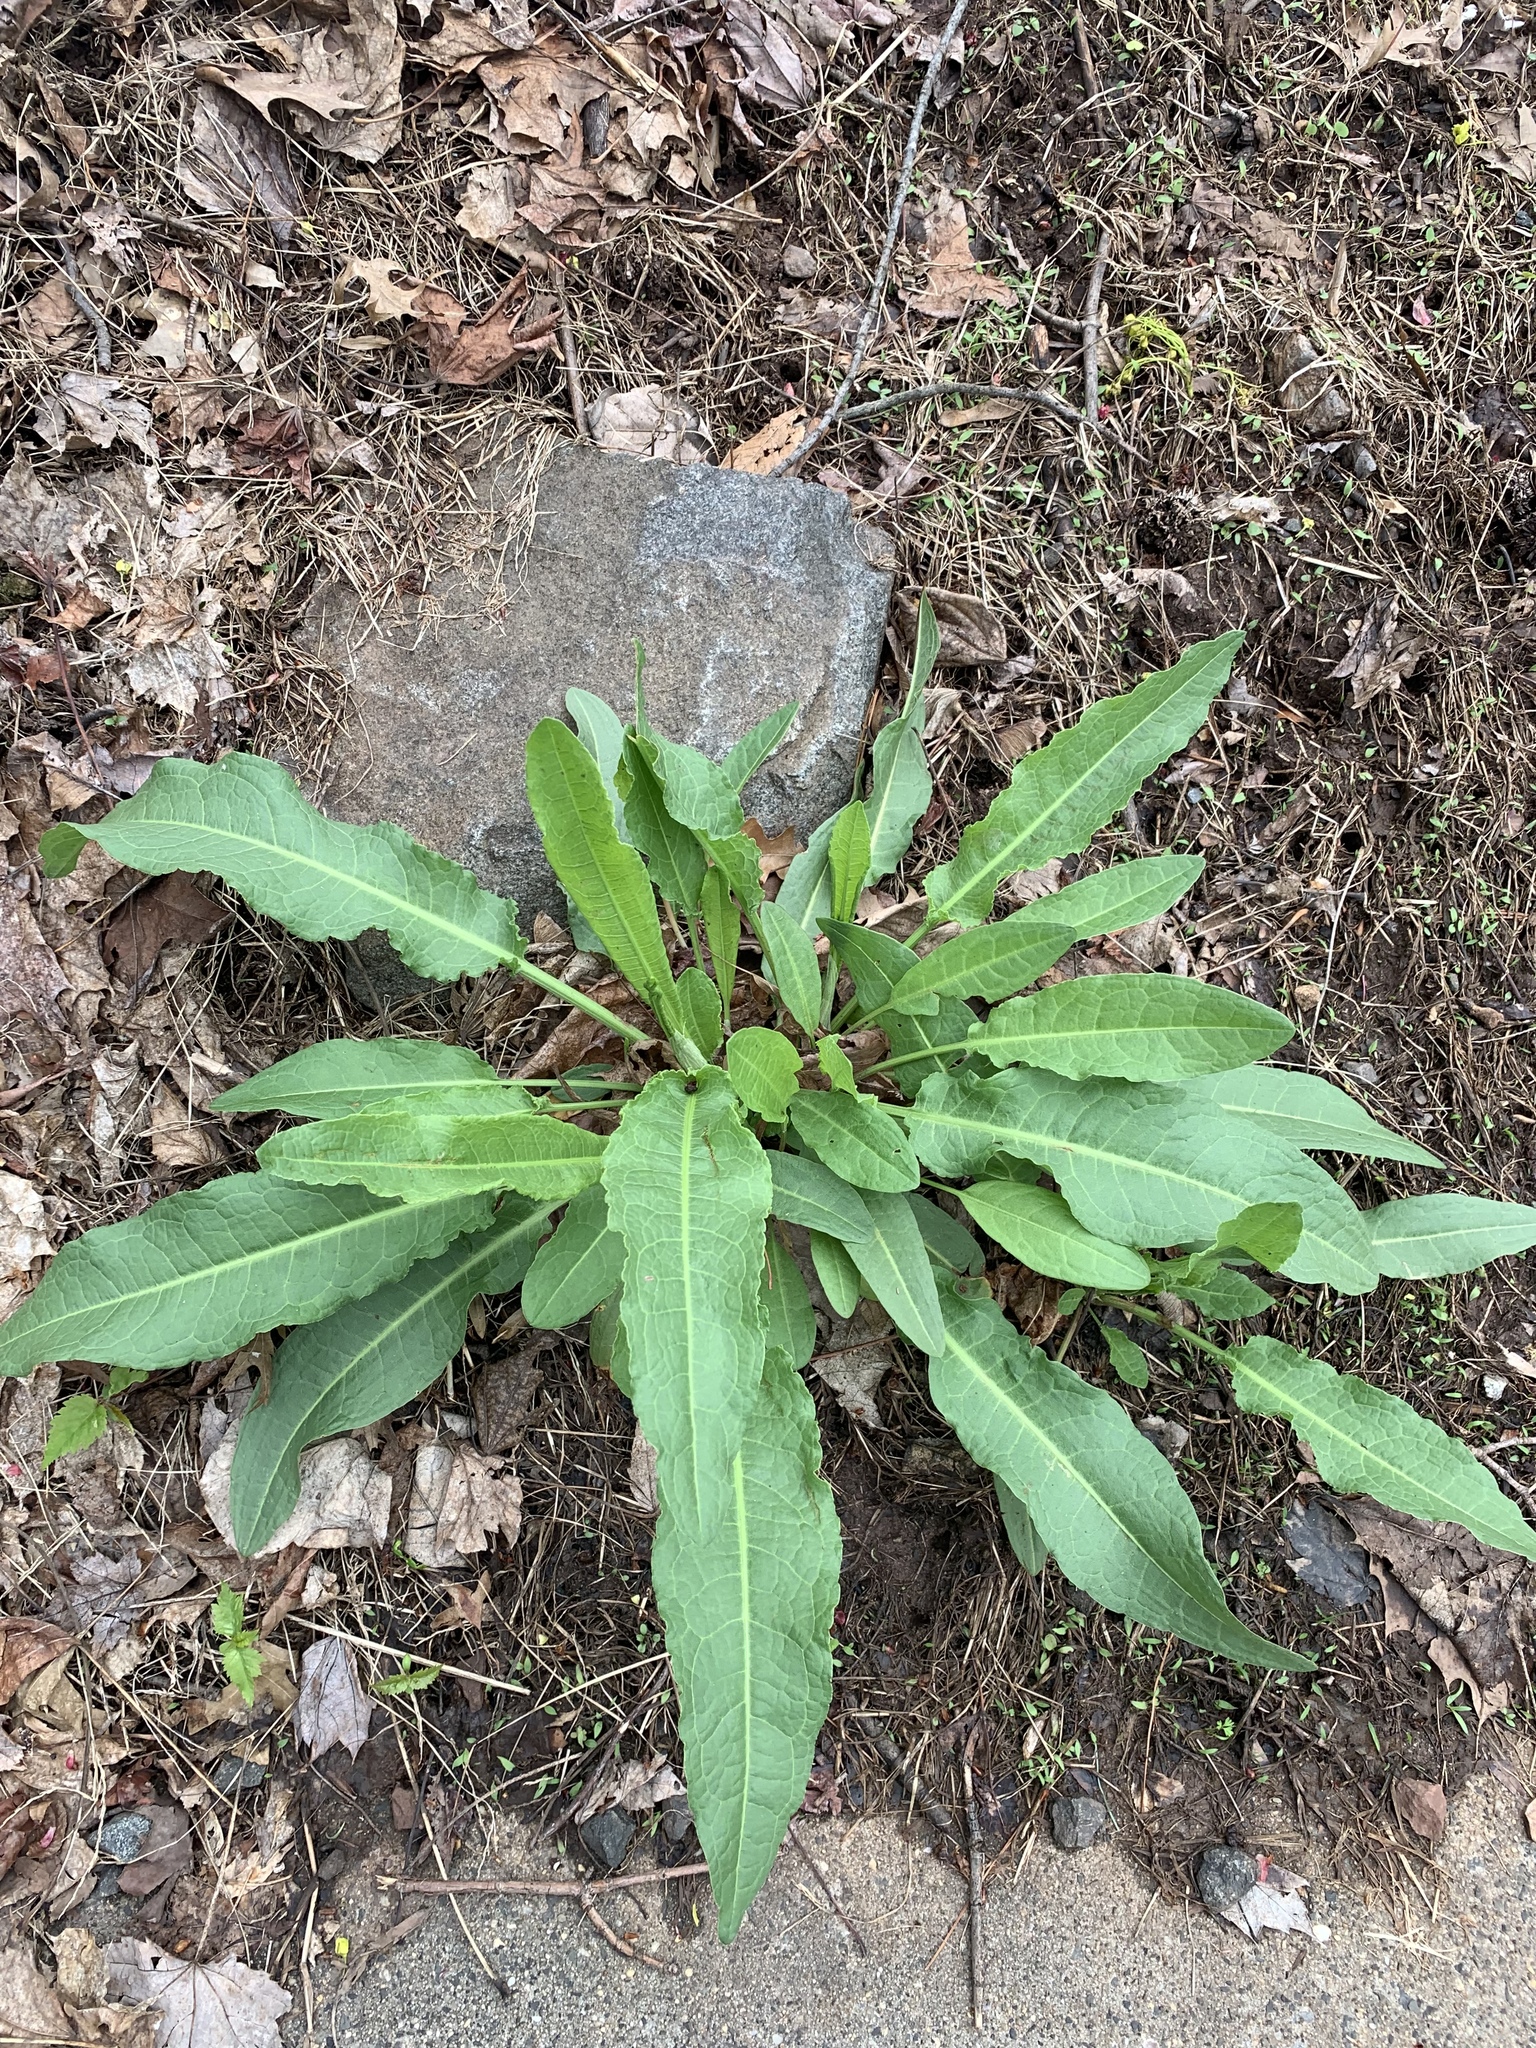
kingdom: Plantae
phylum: Tracheophyta
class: Magnoliopsida
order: Caryophyllales
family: Polygonaceae
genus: Rumex
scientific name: Rumex crispus
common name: Curled dock
